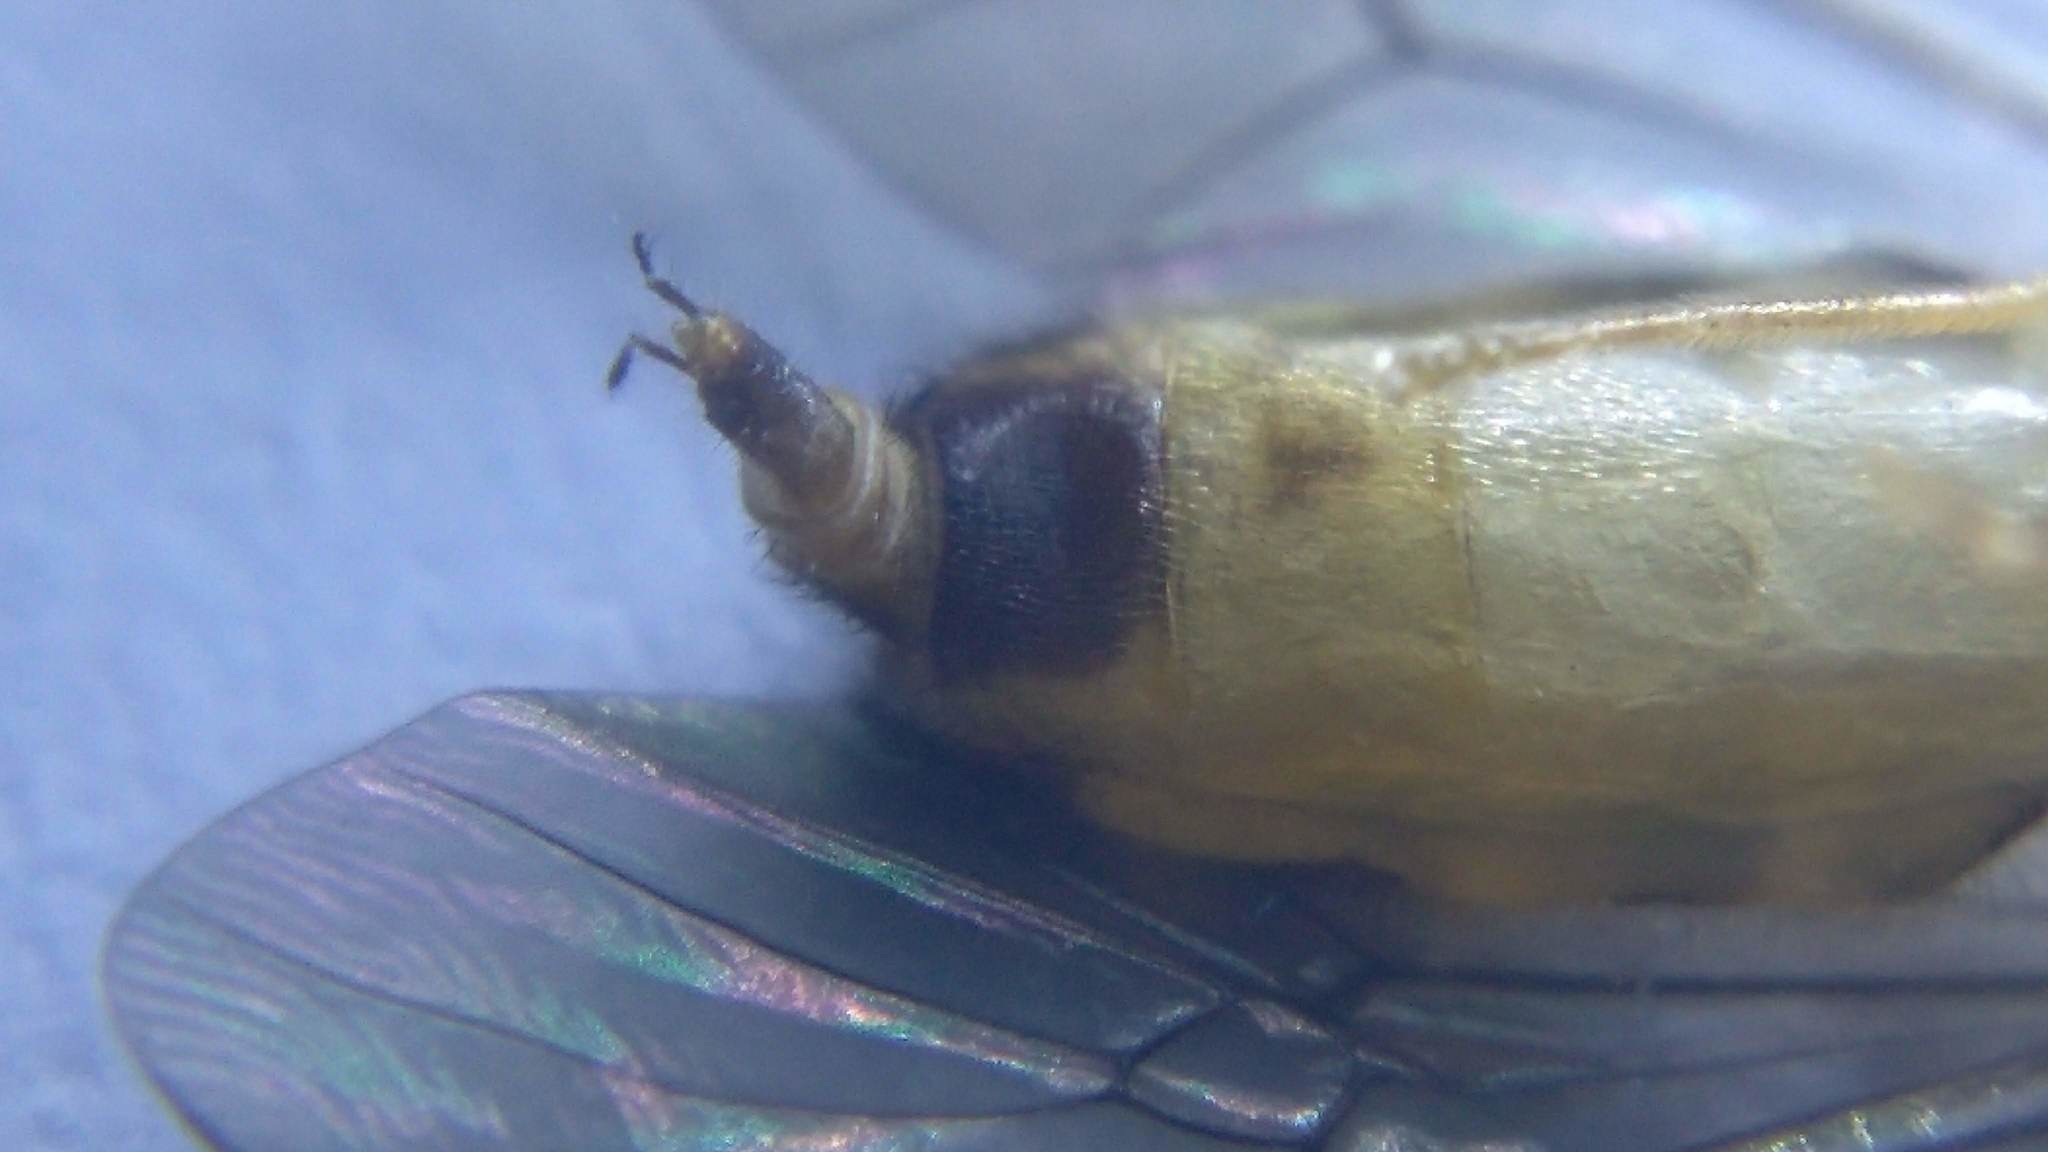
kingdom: Animalia
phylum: Arthropoda
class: Insecta
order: Diptera
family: Stratiomyidae
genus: Sargus
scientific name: Sargus elegans
